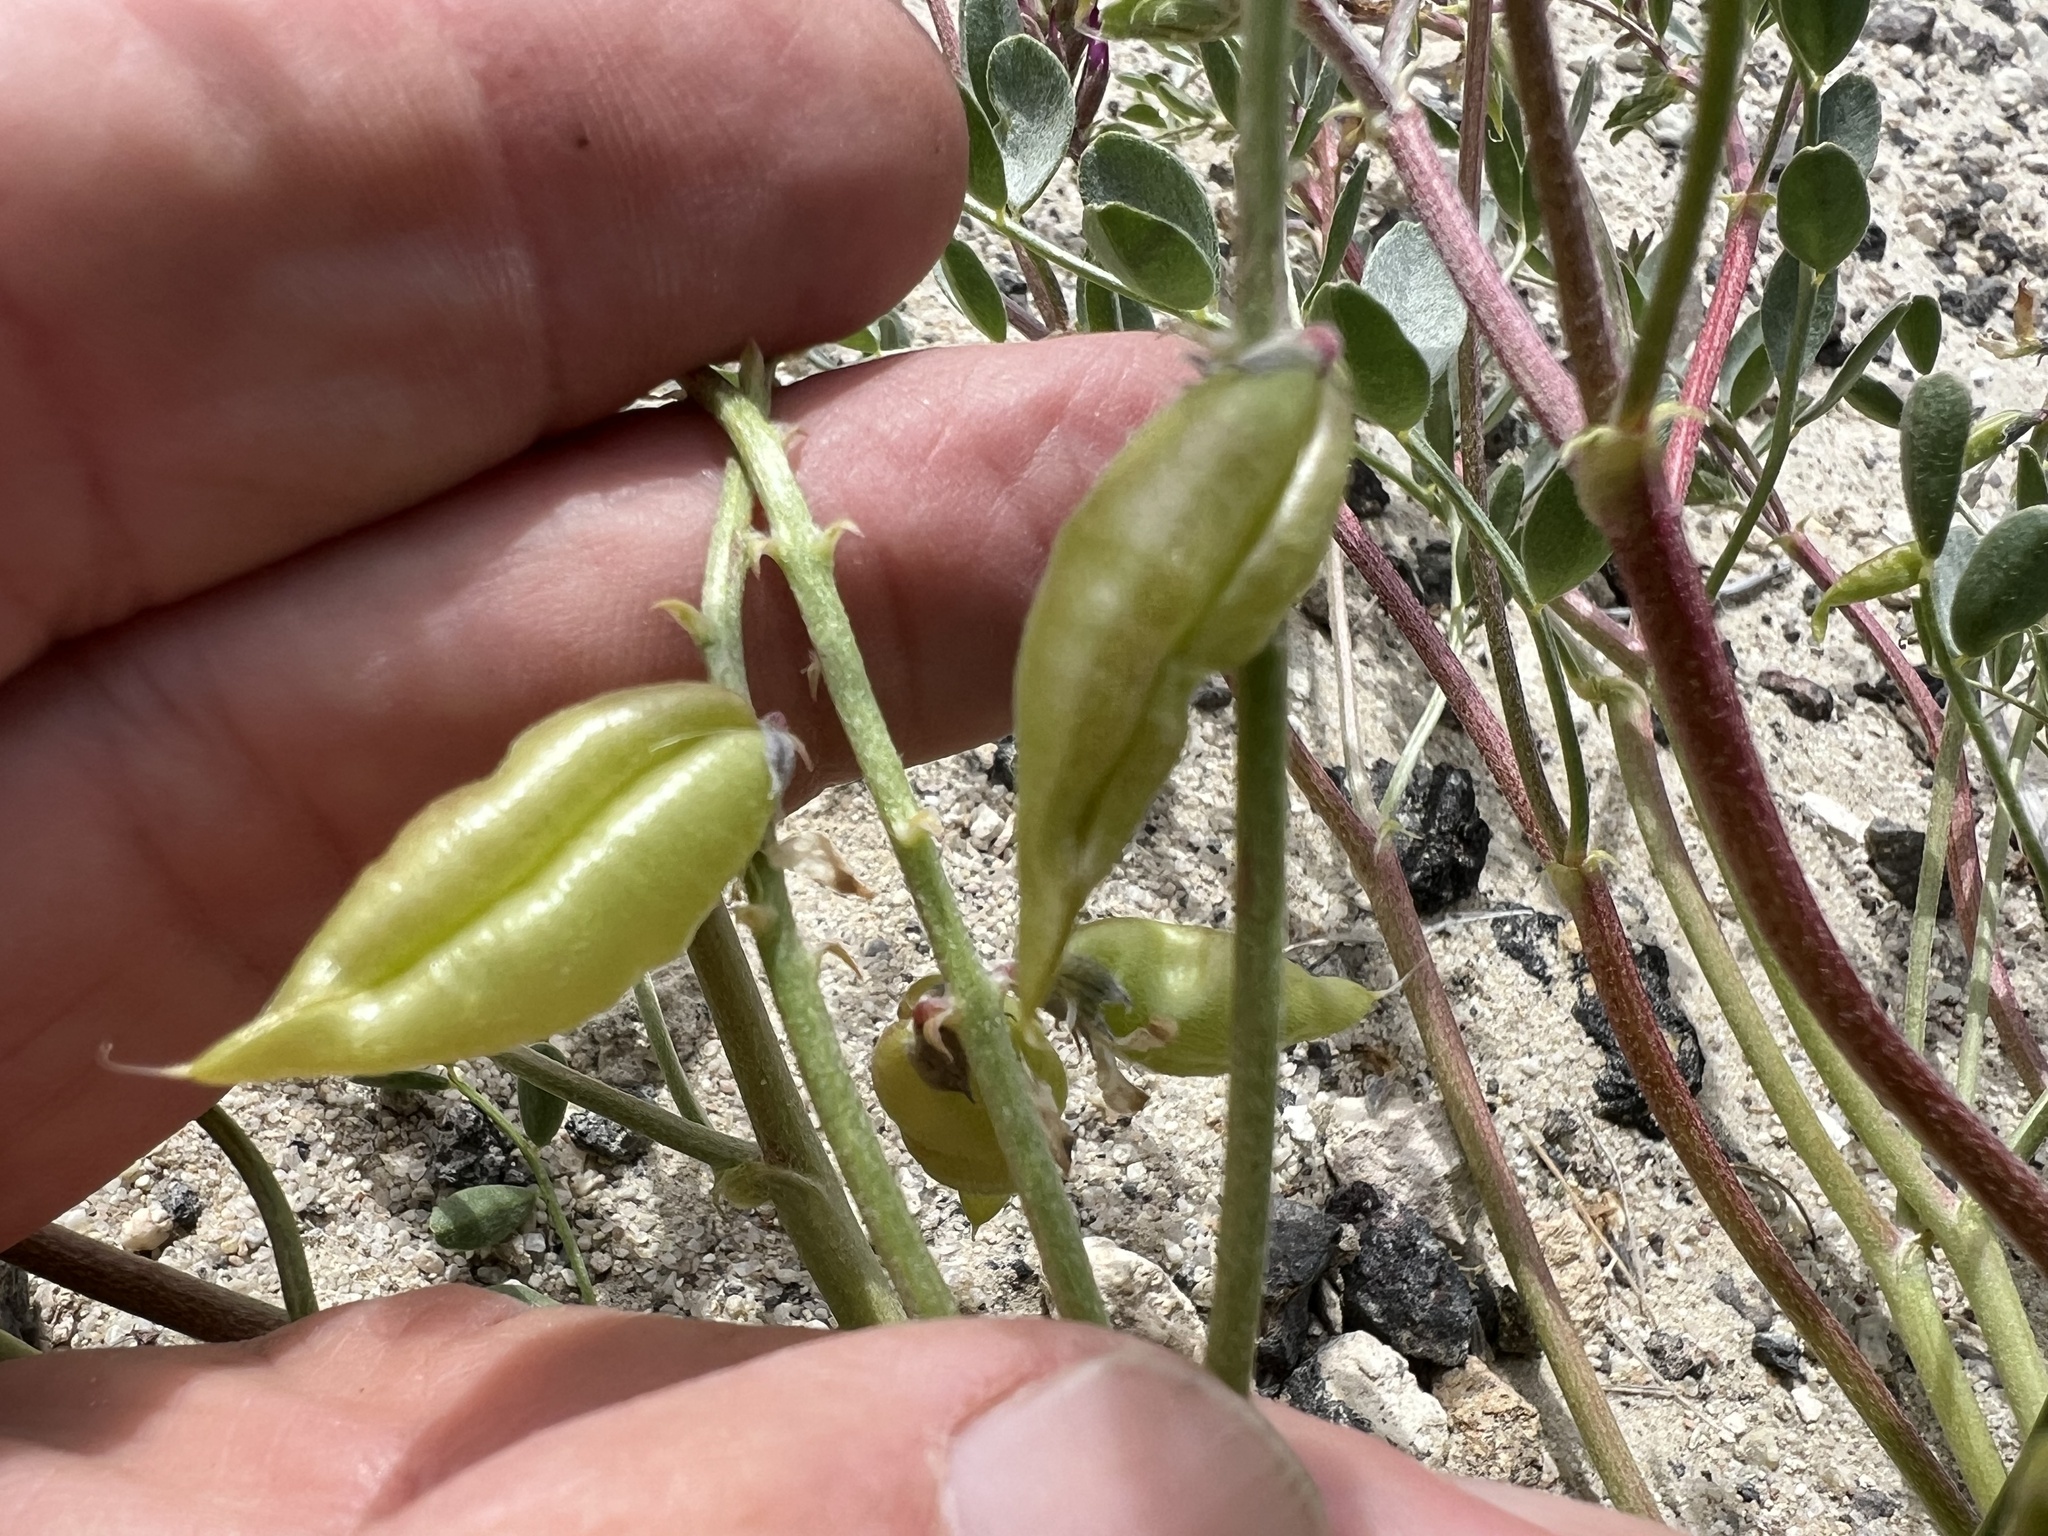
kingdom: Plantae
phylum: Tracheophyta
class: Magnoliopsida
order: Fabales
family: Fabaceae
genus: Astragalus
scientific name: Astragalus lentiginosus
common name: Freckled milkvetch
